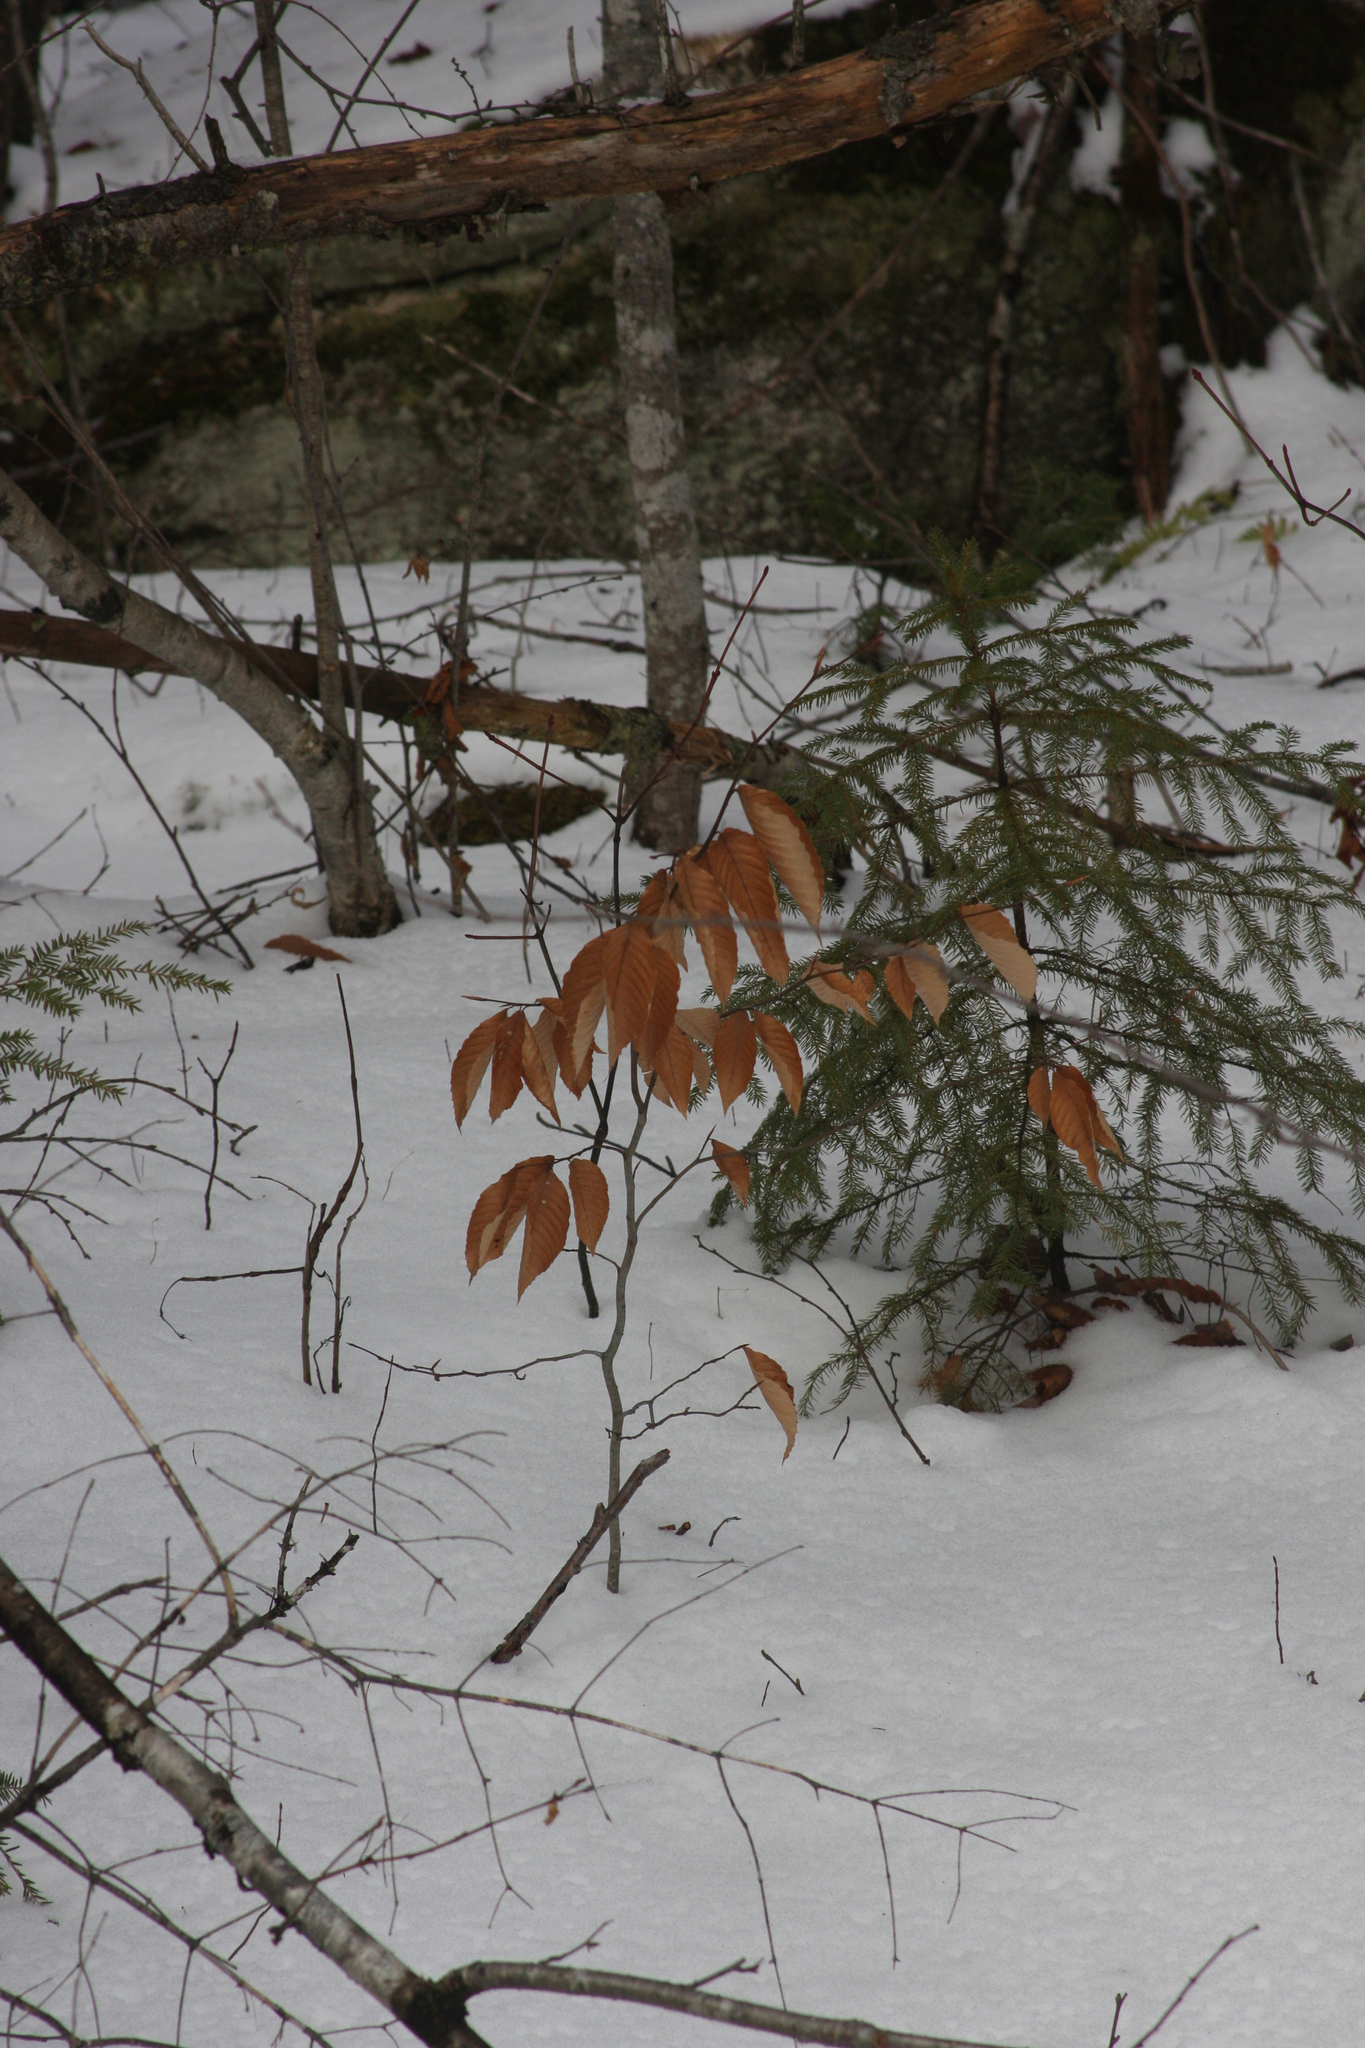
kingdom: Plantae
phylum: Tracheophyta
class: Magnoliopsida
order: Fagales
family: Fagaceae
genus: Fagus
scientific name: Fagus grandifolia
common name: American beech
